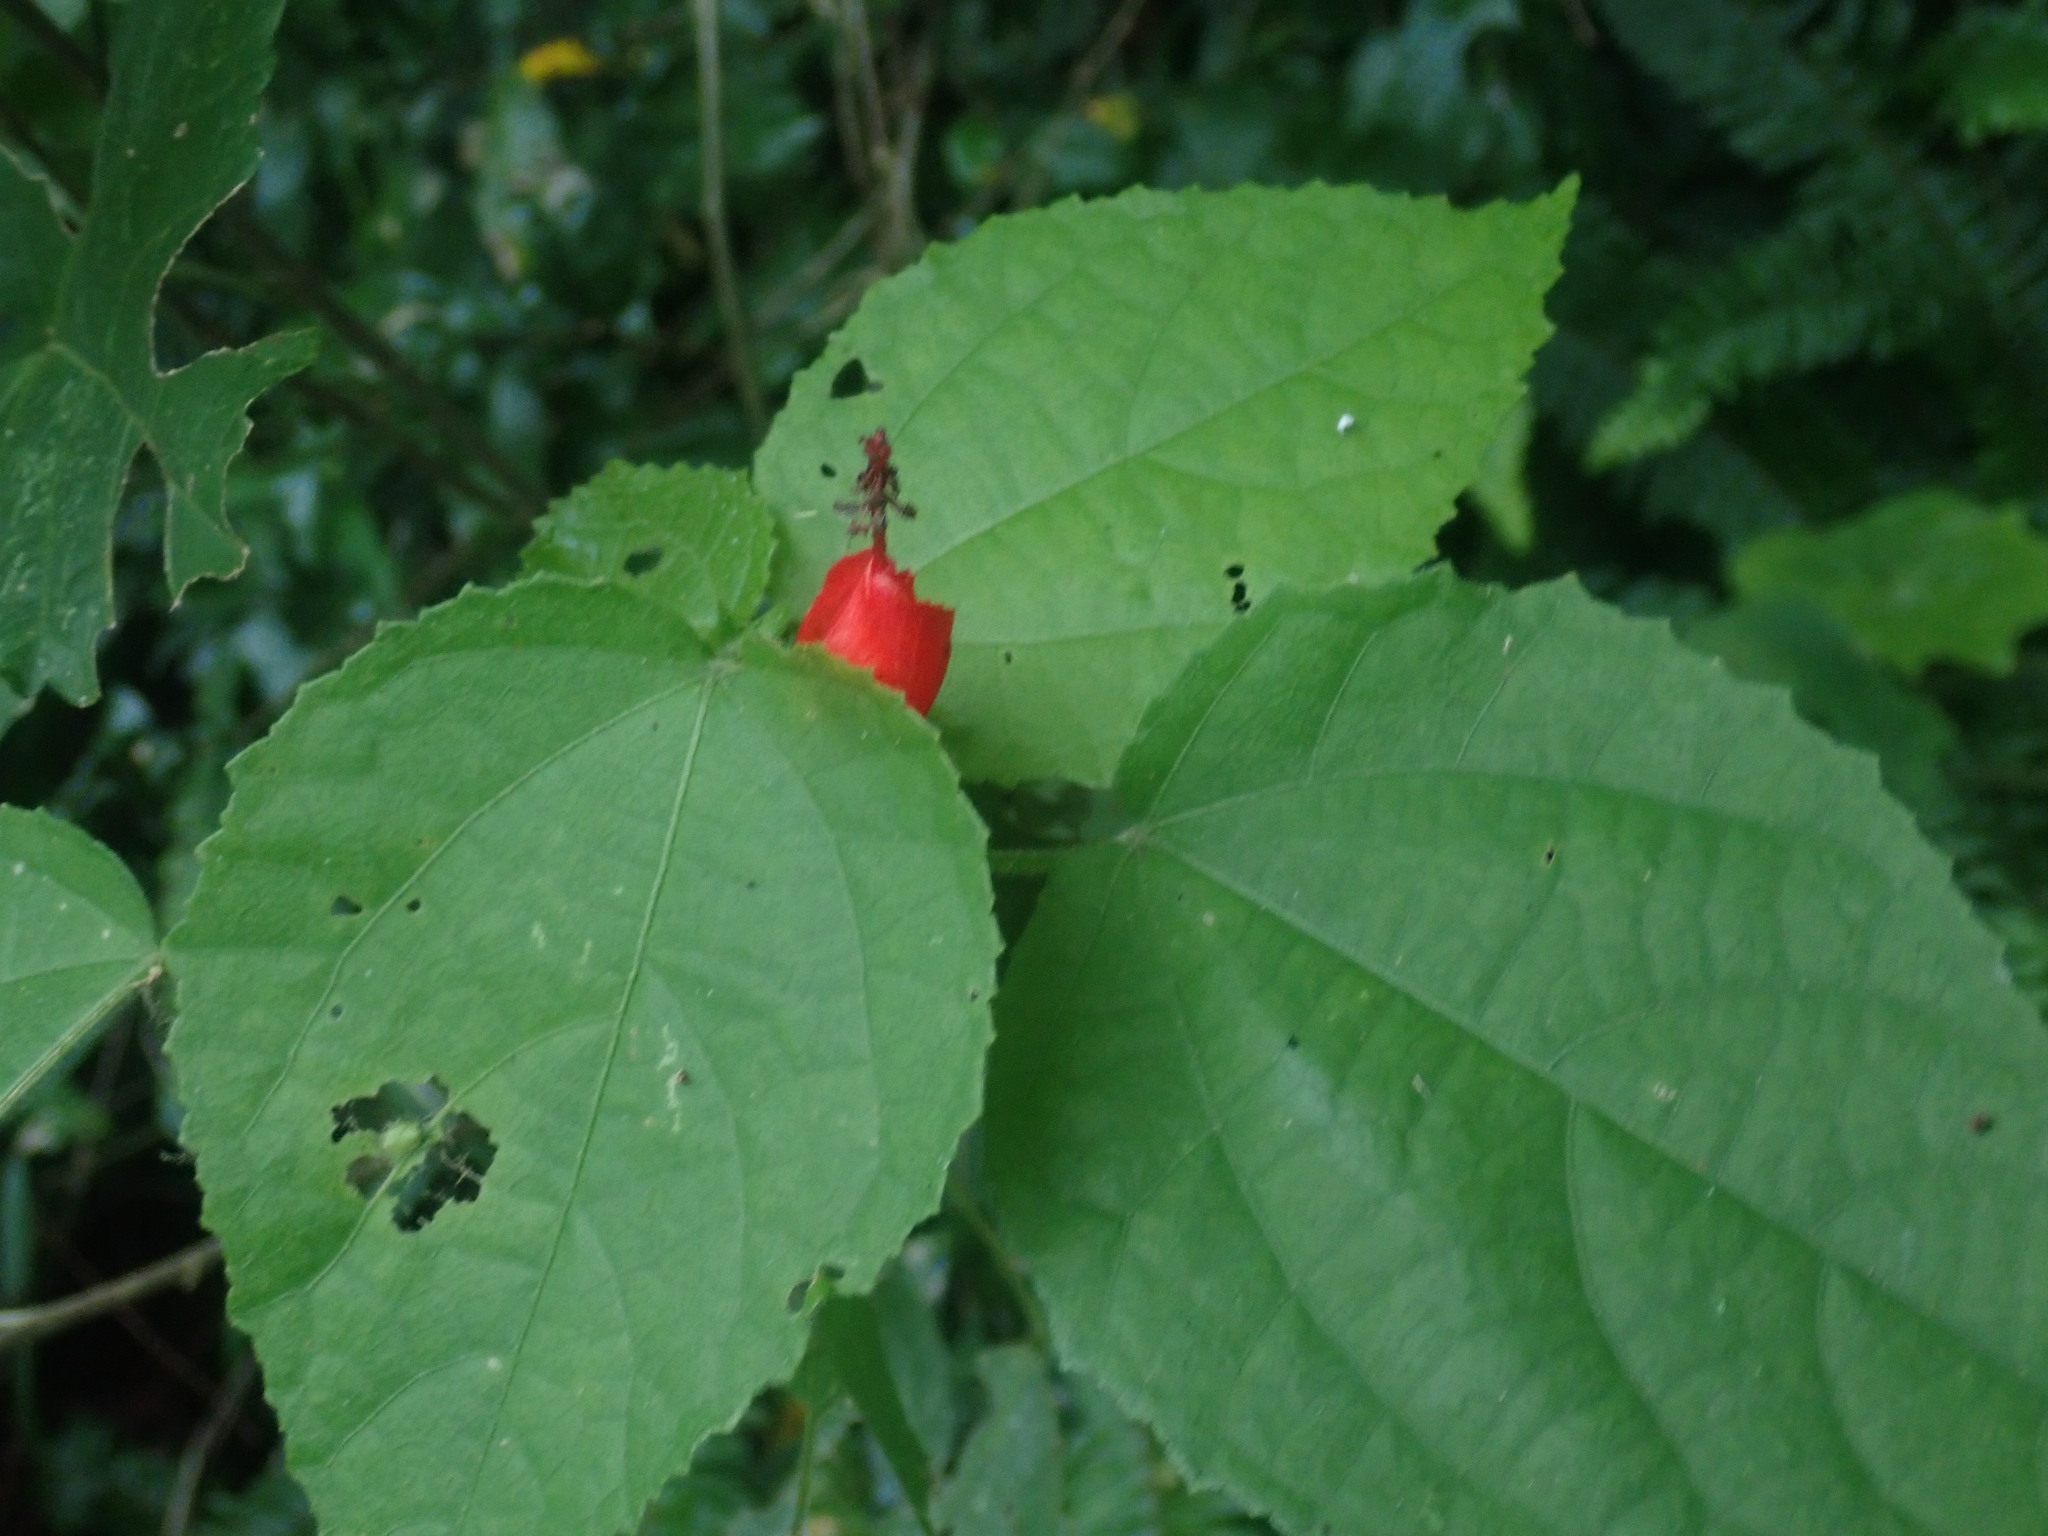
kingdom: Plantae
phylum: Tracheophyta
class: Magnoliopsida
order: Malvales
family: Malvaceae
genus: Malvaviscus
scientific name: Malvaviscus arboreus
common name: Wax mallow
